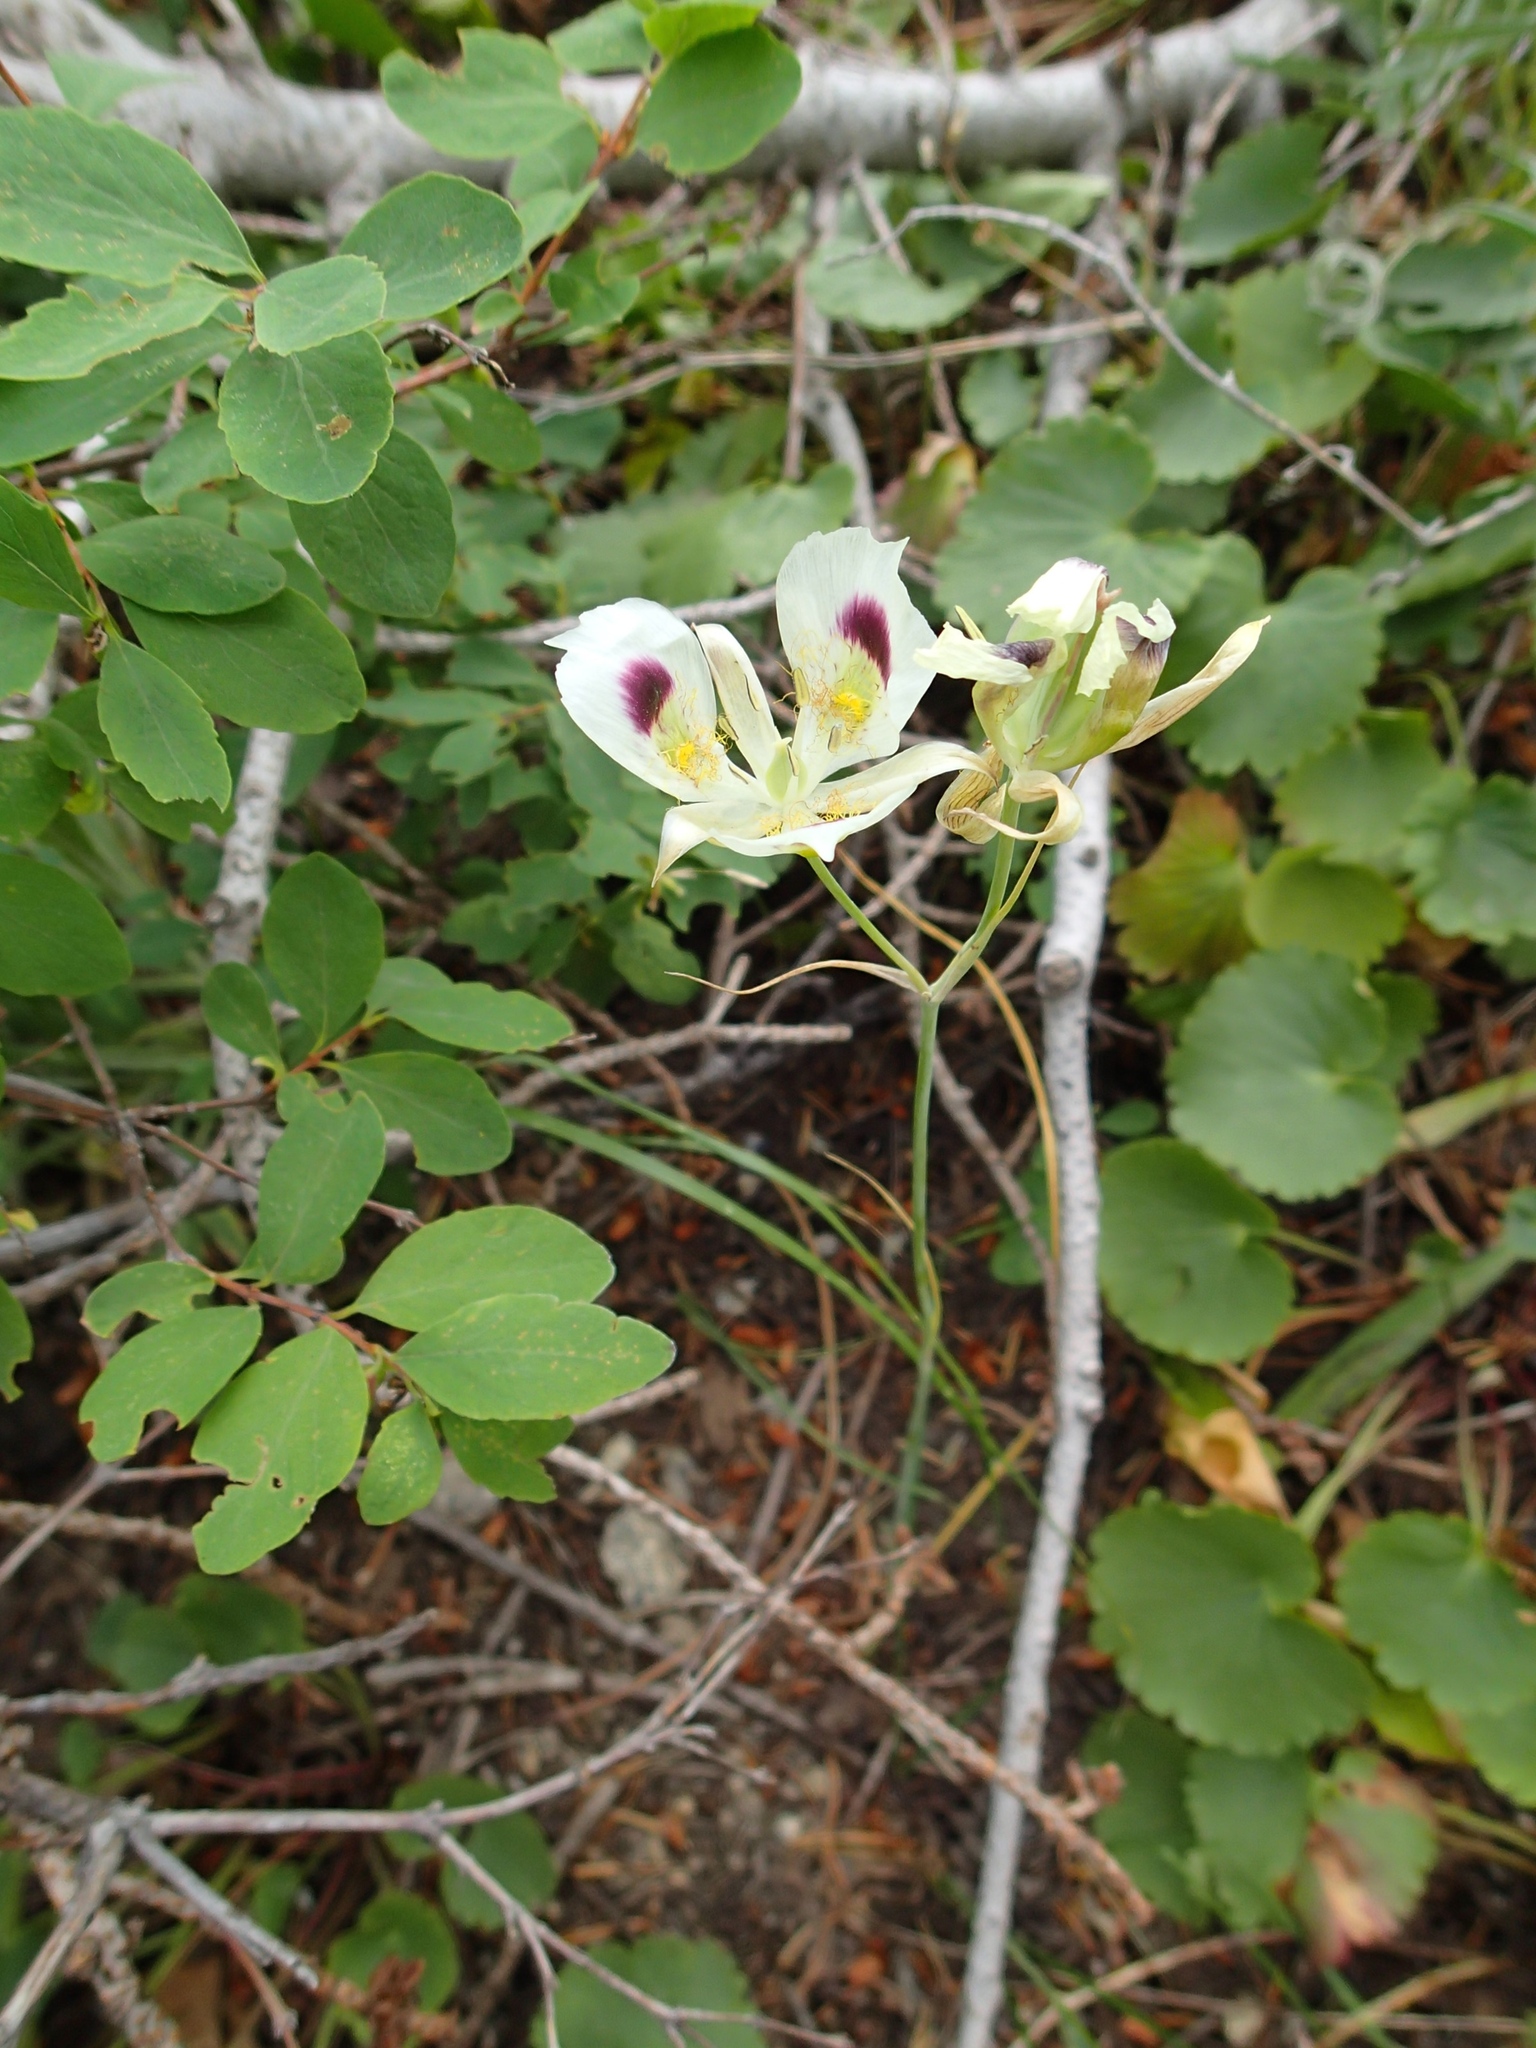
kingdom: Plantae
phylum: Tracheophyta
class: Liliopsida
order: Liliales
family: Liliaceae
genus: Calochortus
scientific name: Calochortus eurycarpus
